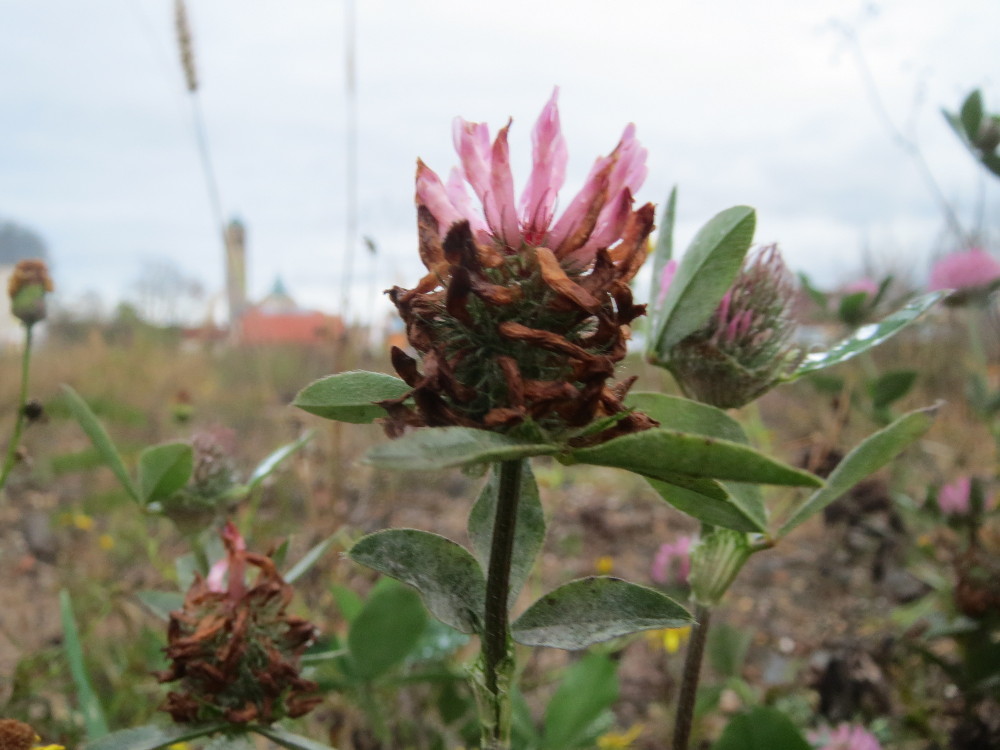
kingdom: Plantae
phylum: Tracheophyta
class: Magnoliopsida
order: Fabales
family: Fabaceae
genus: Trifolium
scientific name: Trifolium pratense
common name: Red clover
